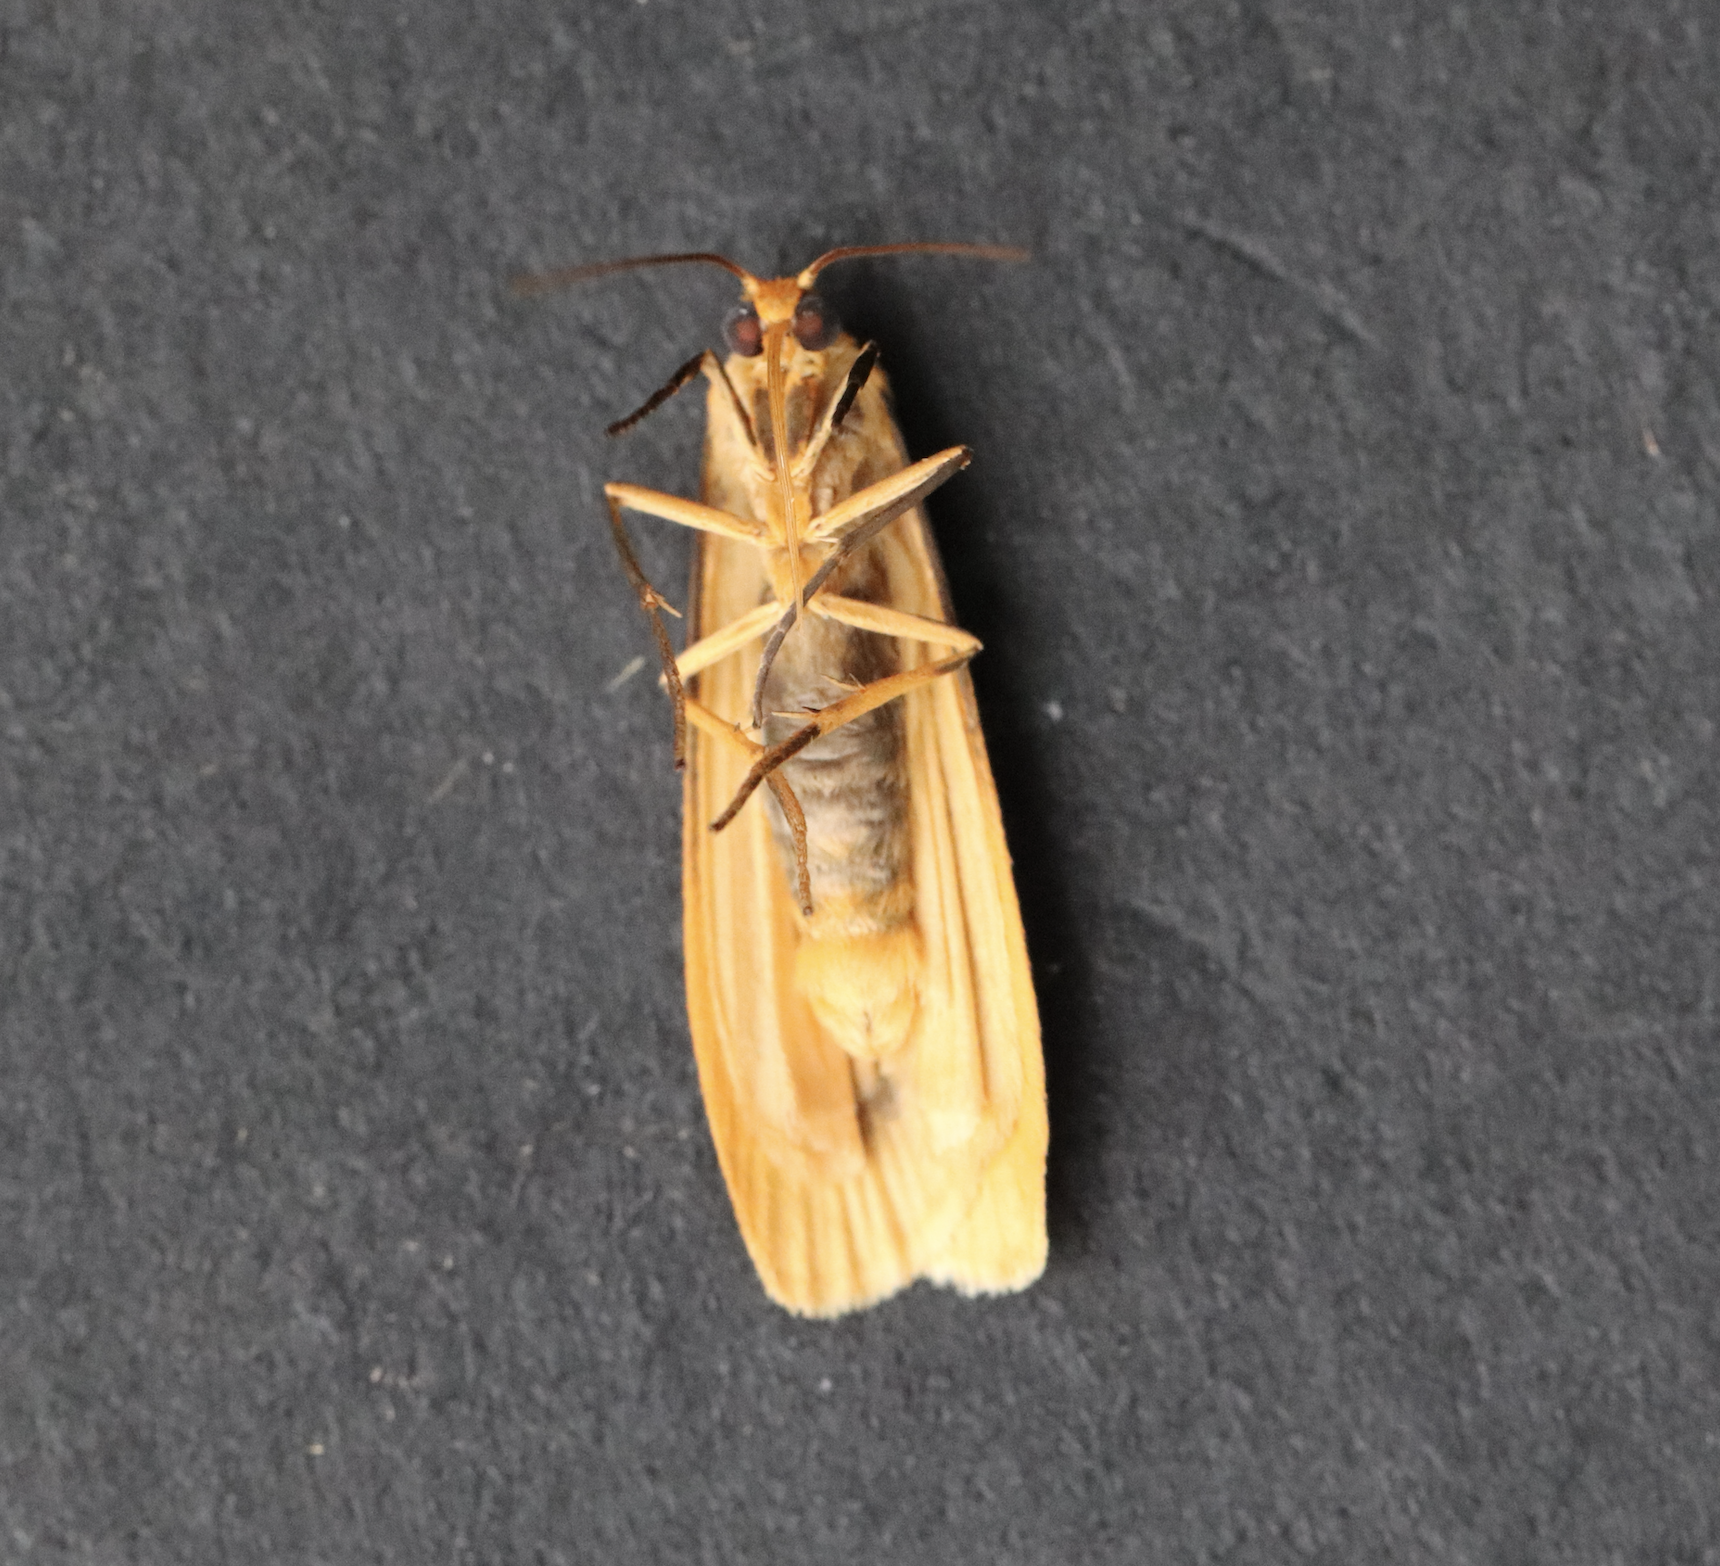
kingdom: Animalia
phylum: Arthropoda
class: Insecta
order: Lepidoptera
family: Erebidae
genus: Nyea
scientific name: Nyea lurideola
